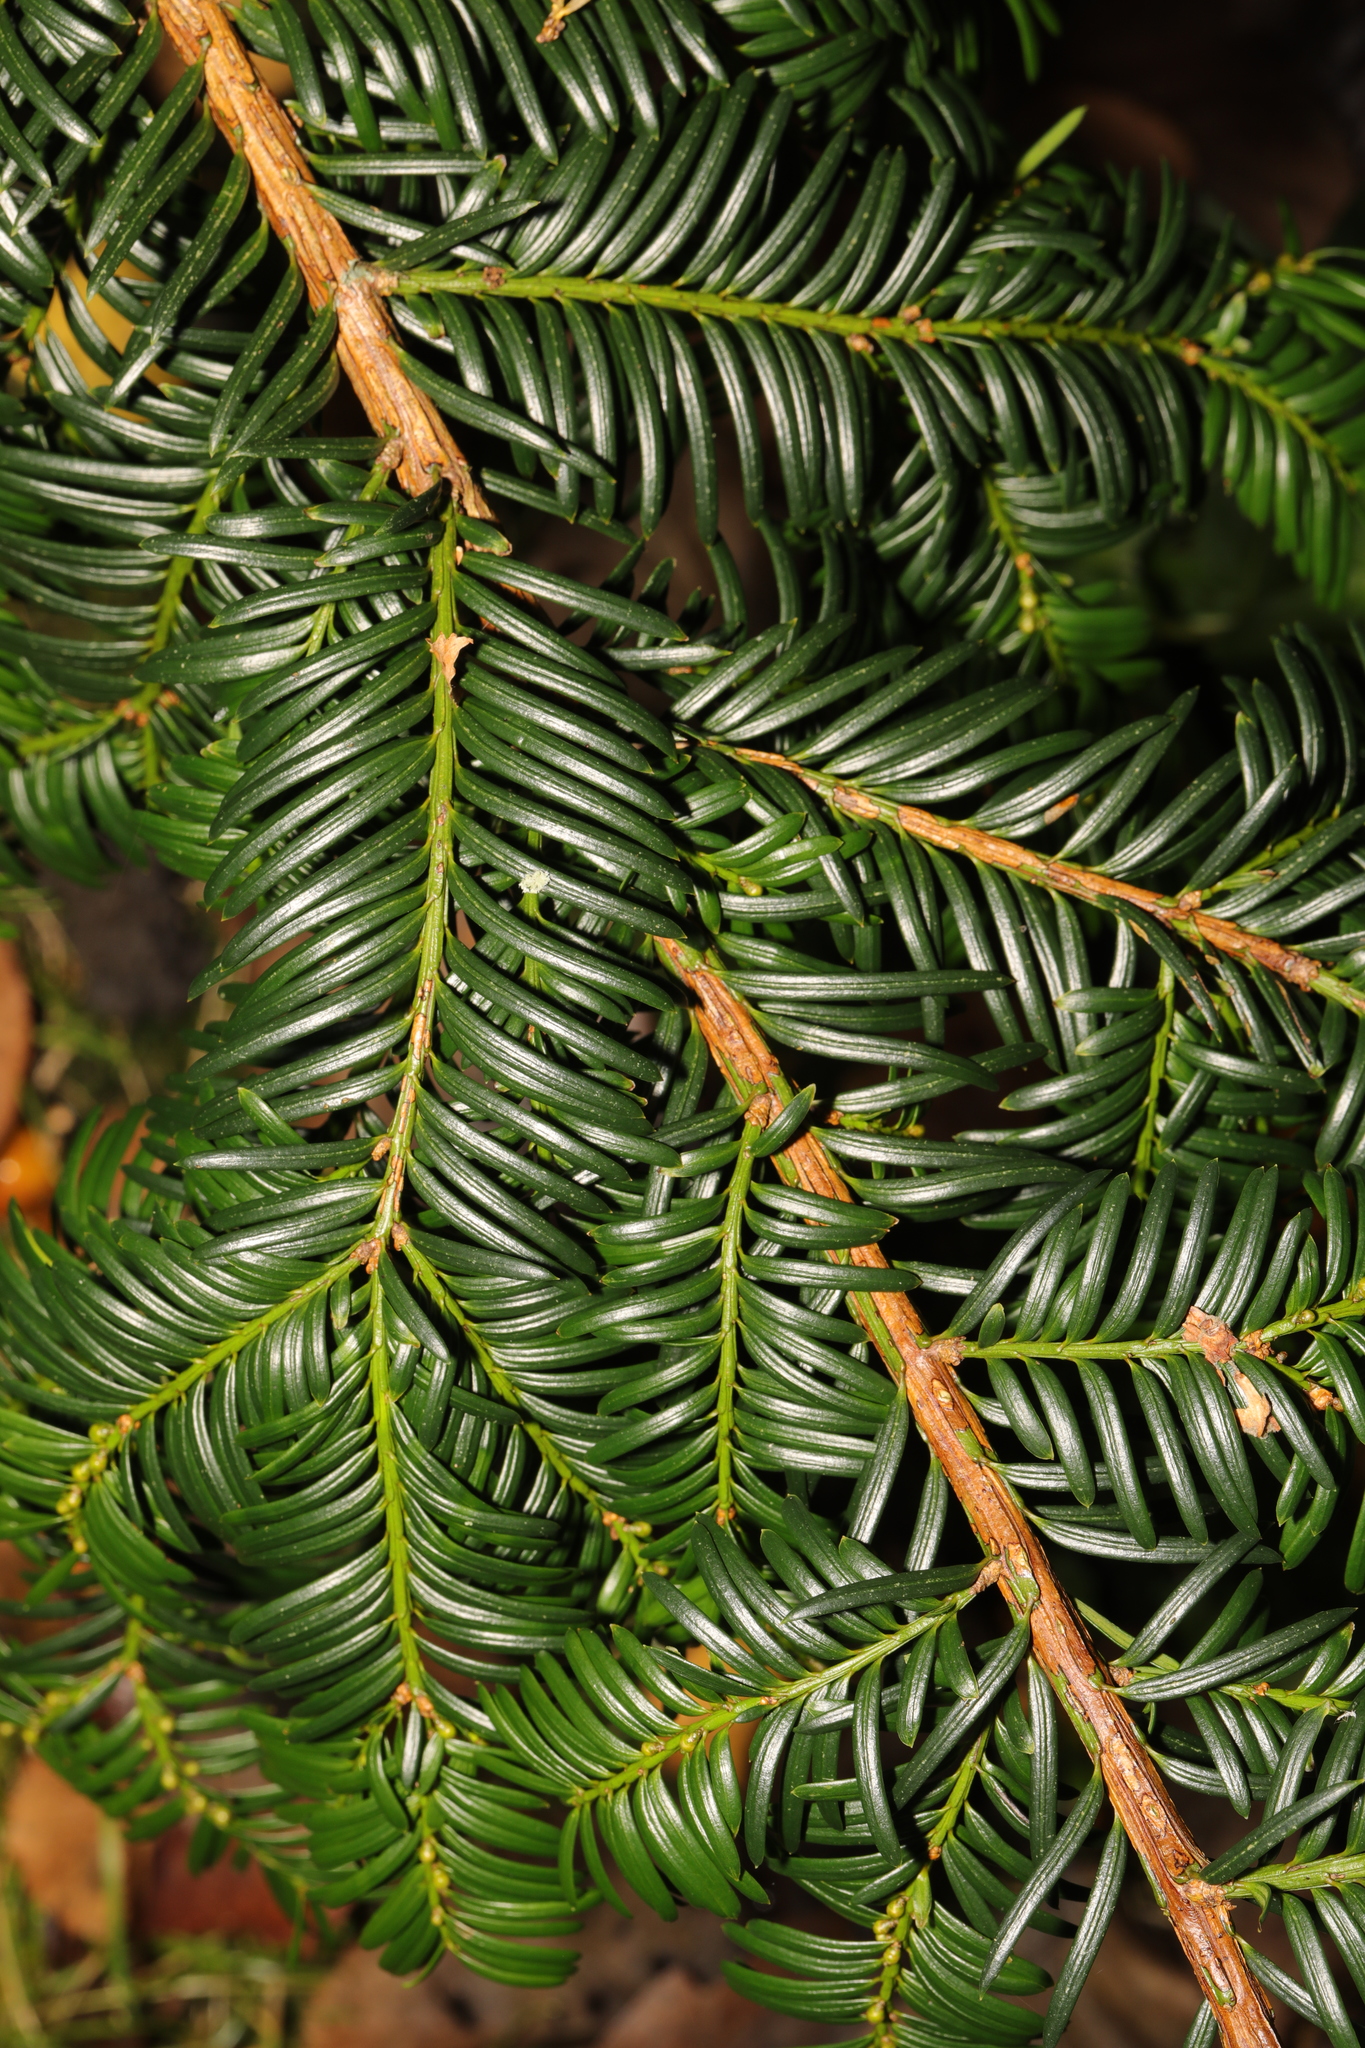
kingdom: Plantae
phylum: Tracheophyta
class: Pinopsida
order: Pinales
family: Taxaceae
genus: Taxus
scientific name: Taxus baccata
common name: Yew
